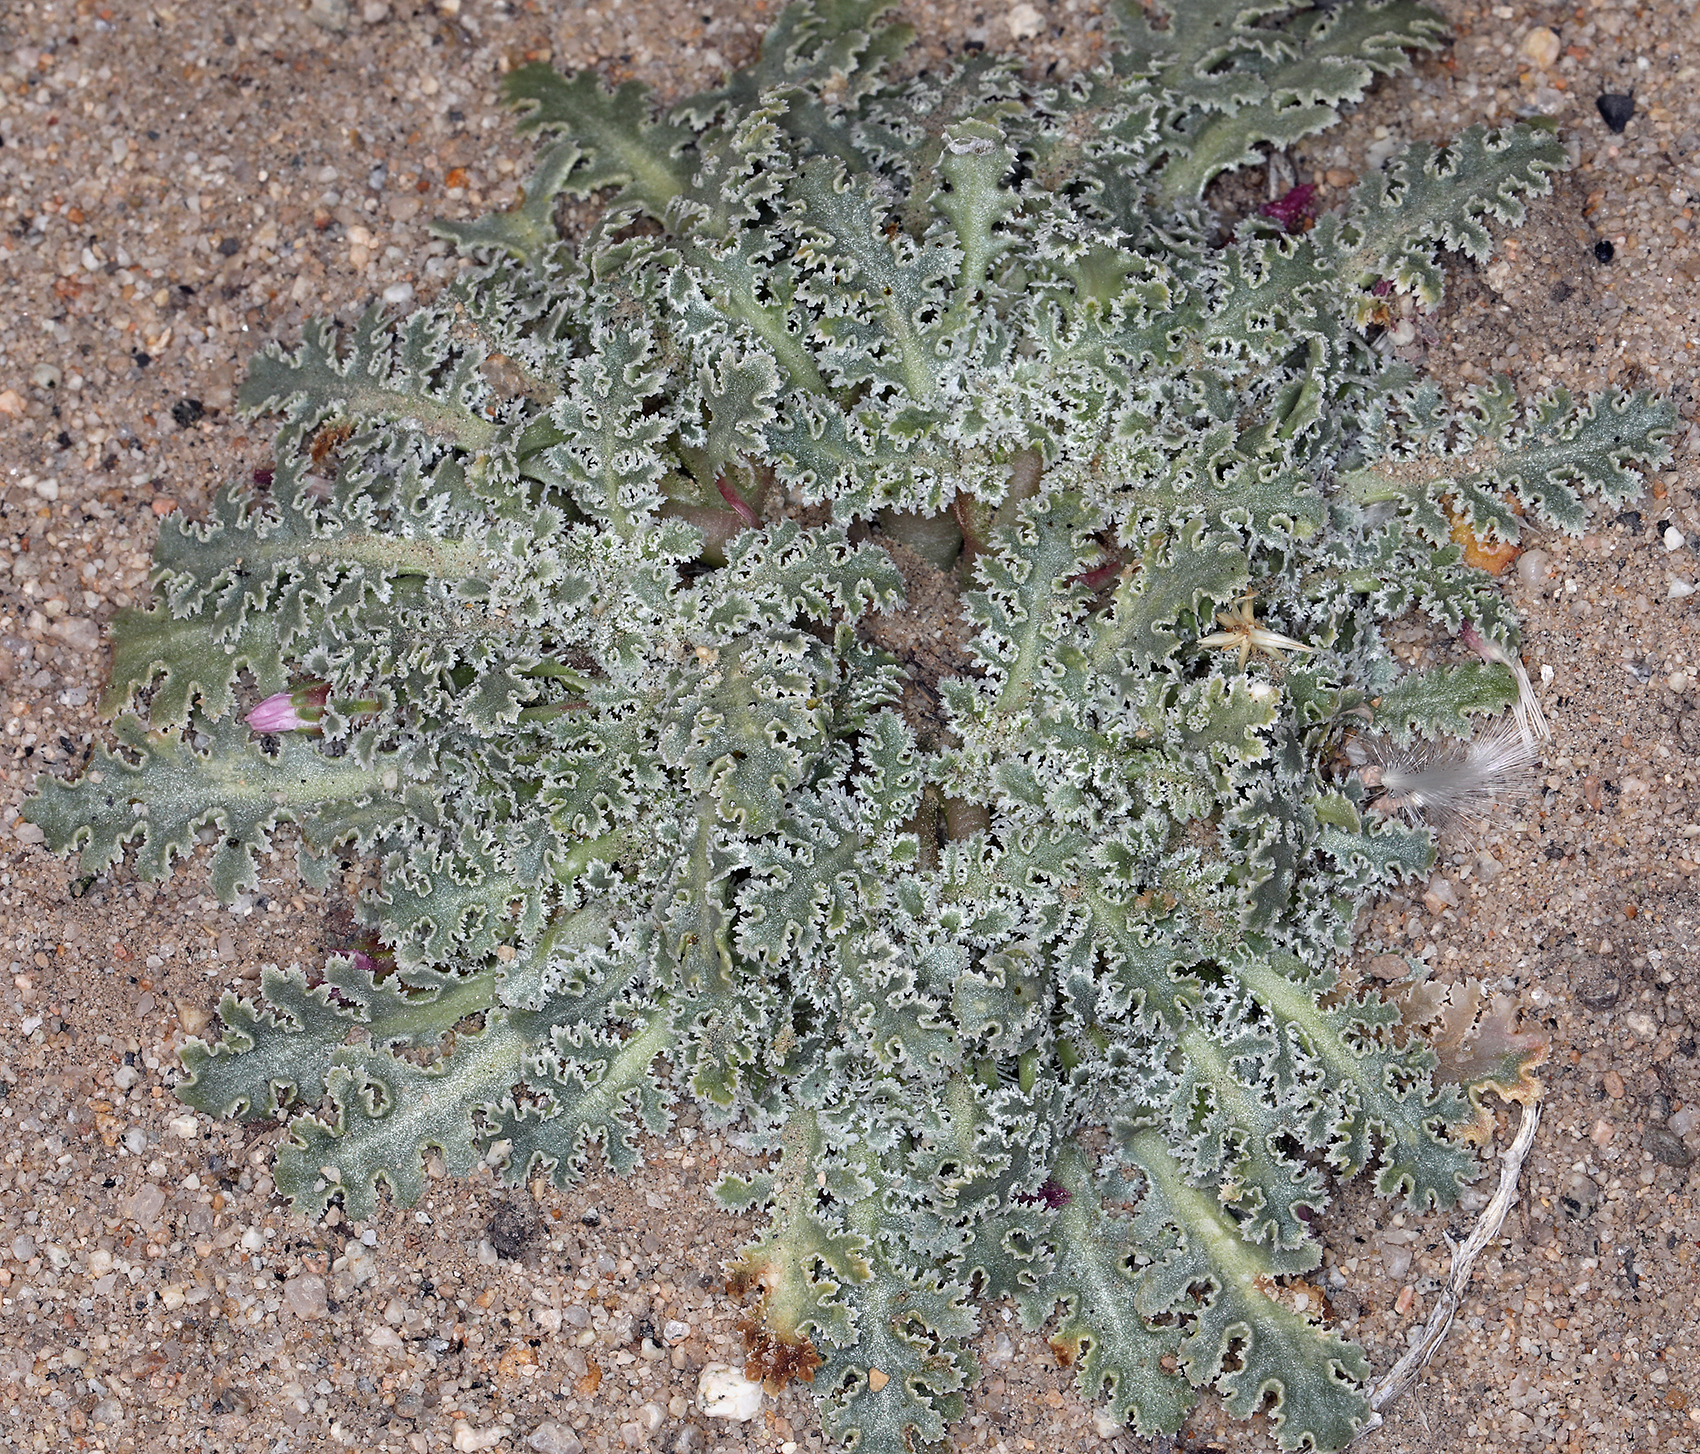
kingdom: Plantae
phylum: Tracheophyta
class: Magnoliopsida
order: Asterales
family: Asteraceae
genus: Glyptopleura
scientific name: Glyptopleura marginata
